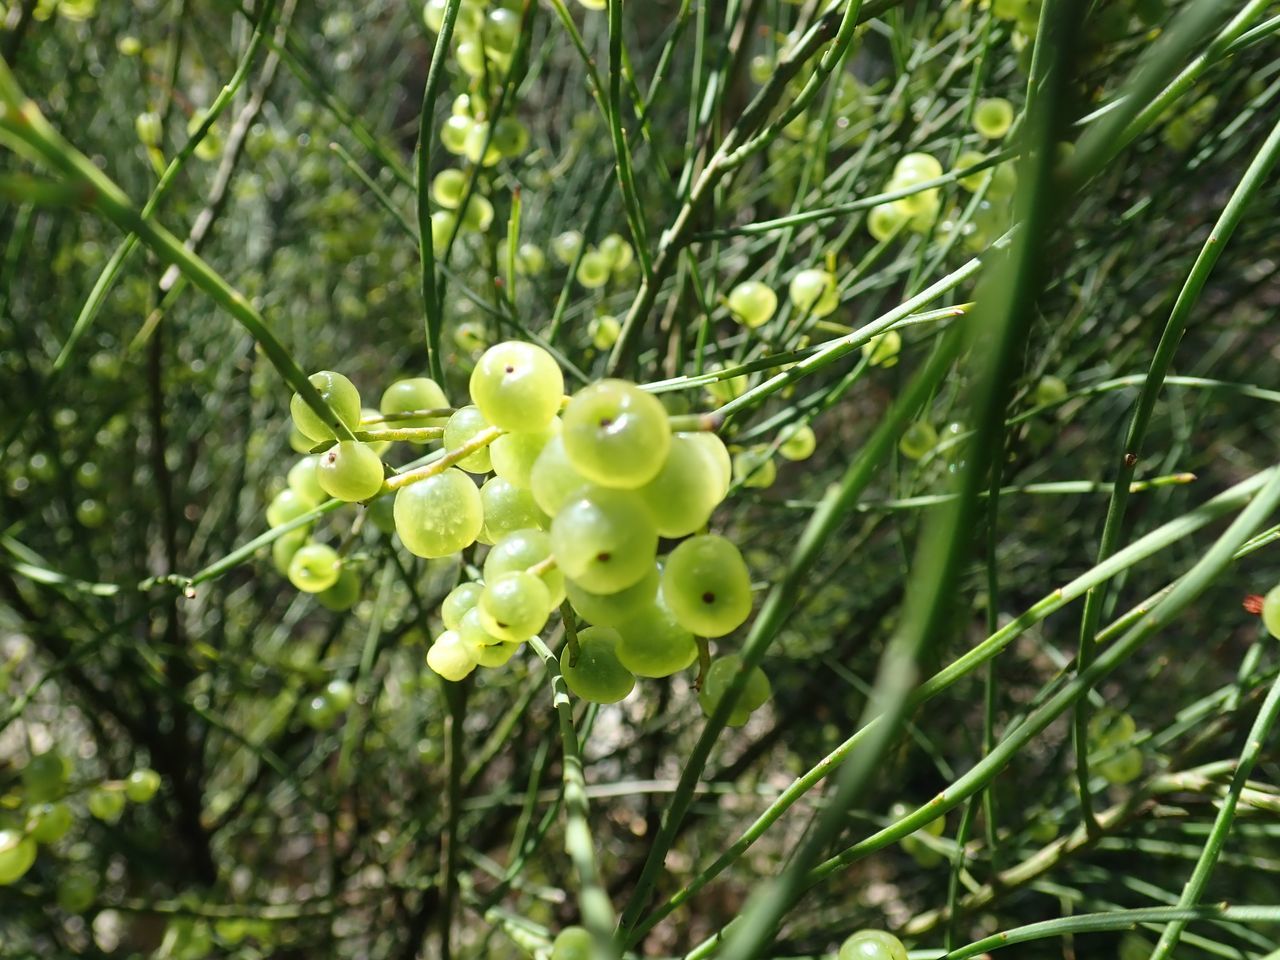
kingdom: Plantae
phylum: Tracheophyta
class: Magnoliopsida
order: Santalales
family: Amphorogynaceae
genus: Leptomeria
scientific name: Leptomeria acida
